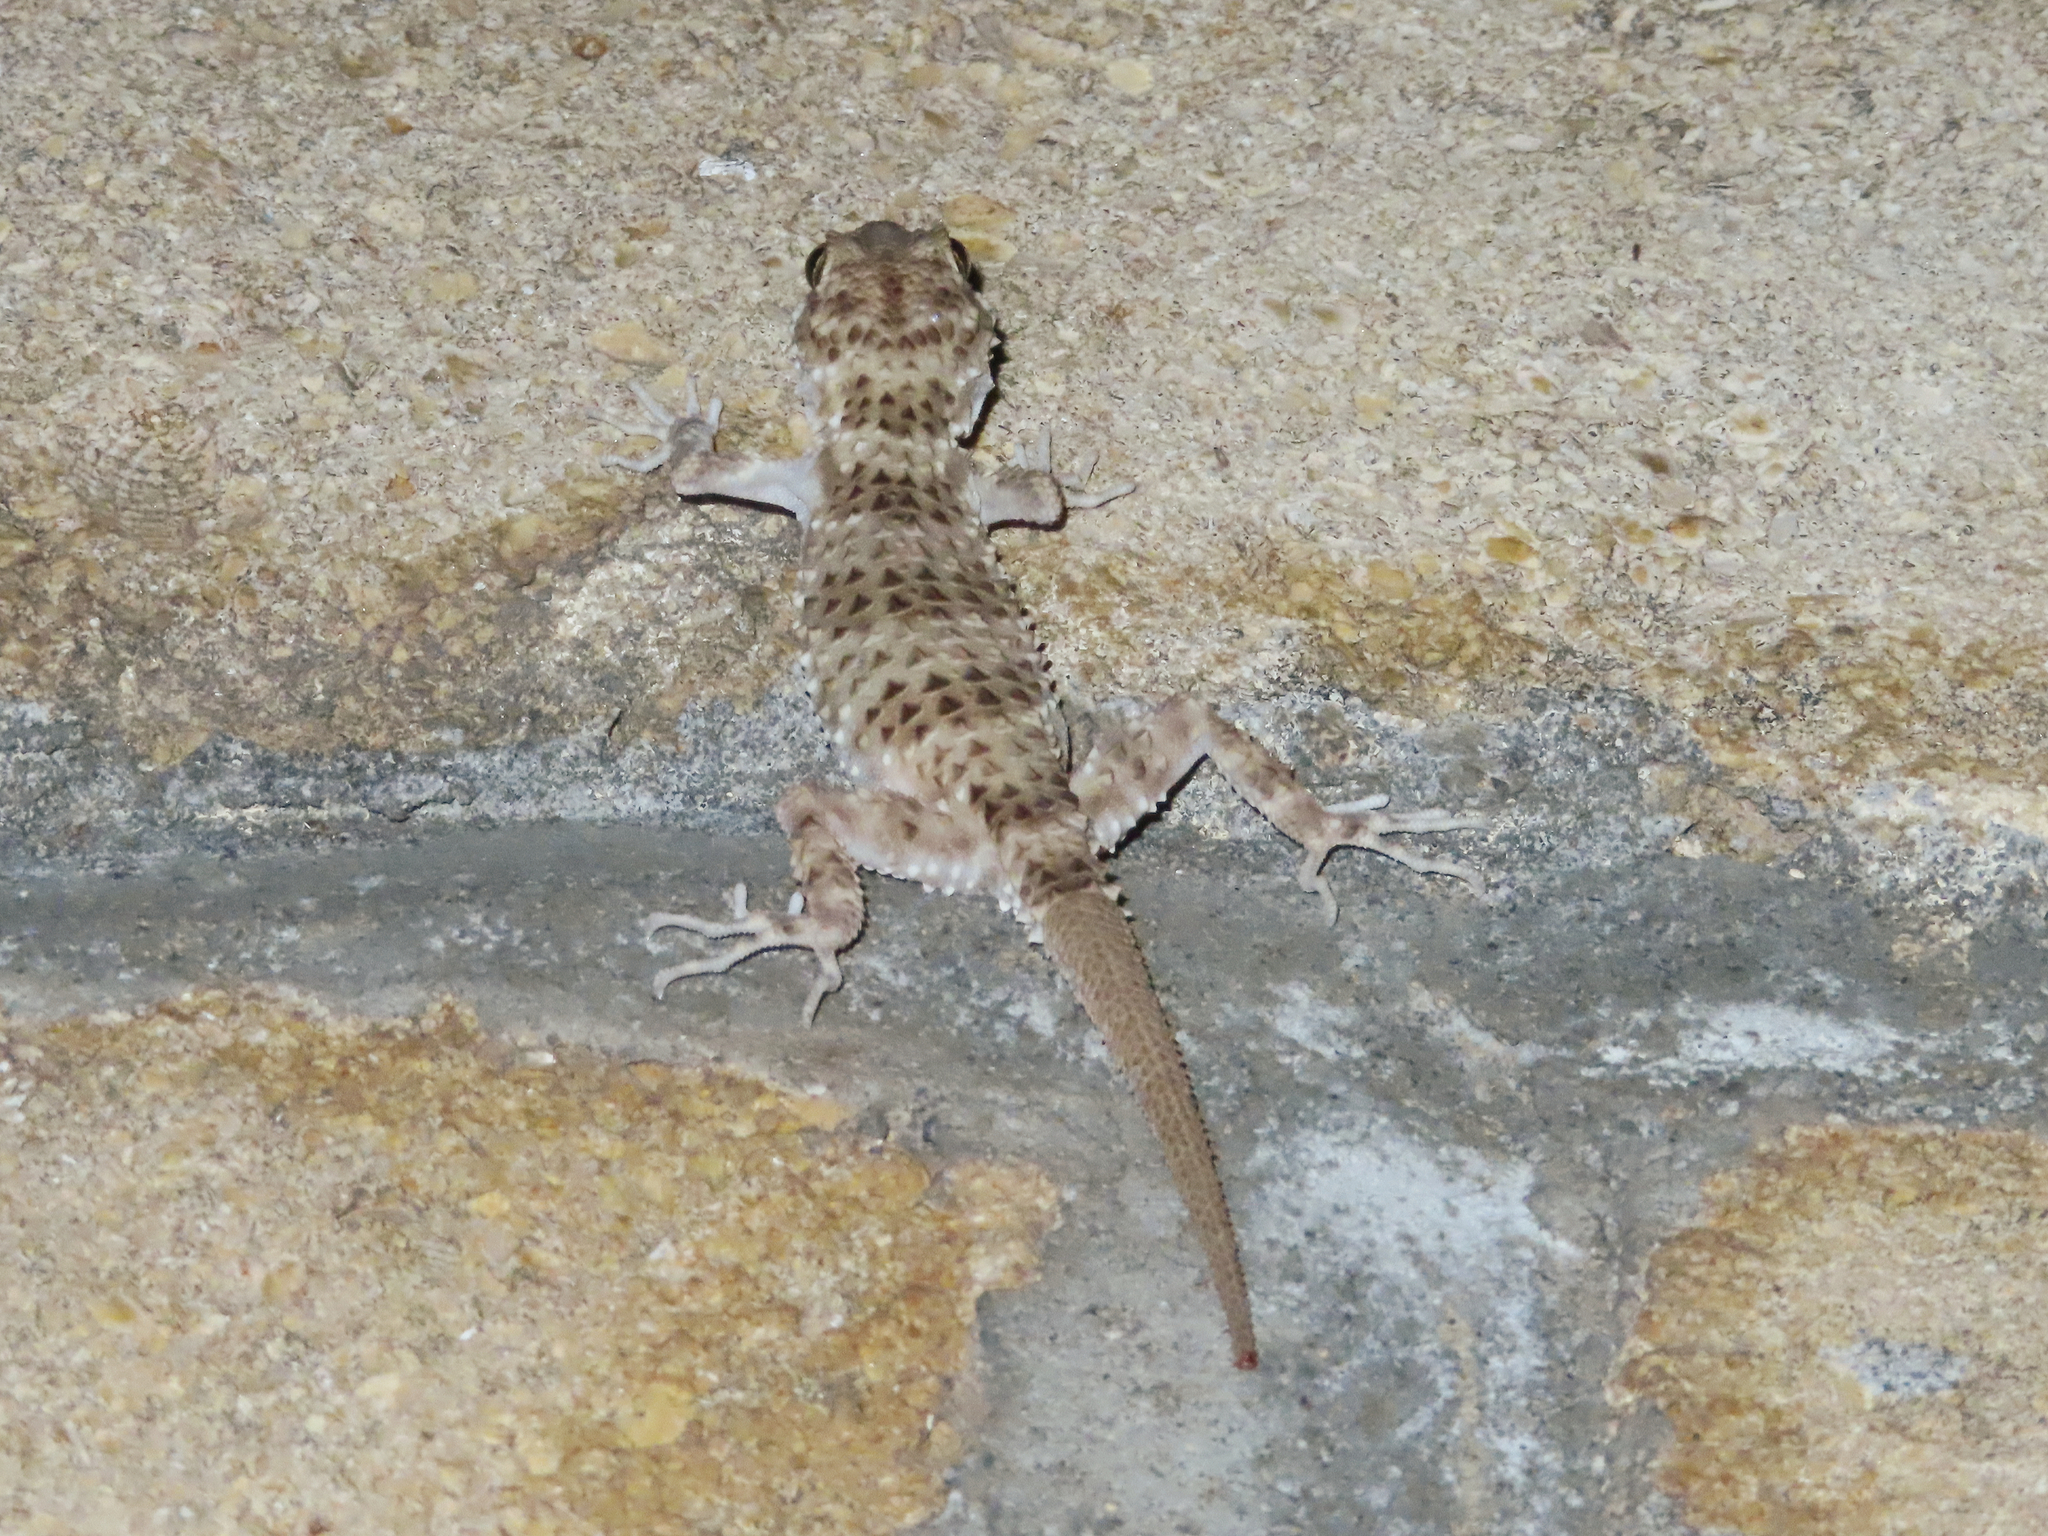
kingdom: Animalia
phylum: Chordata
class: Squamata
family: Gekkonidae
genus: Tenuidactylus
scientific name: Tenuidactylus caspius
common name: Caspian bent-toed gecko
